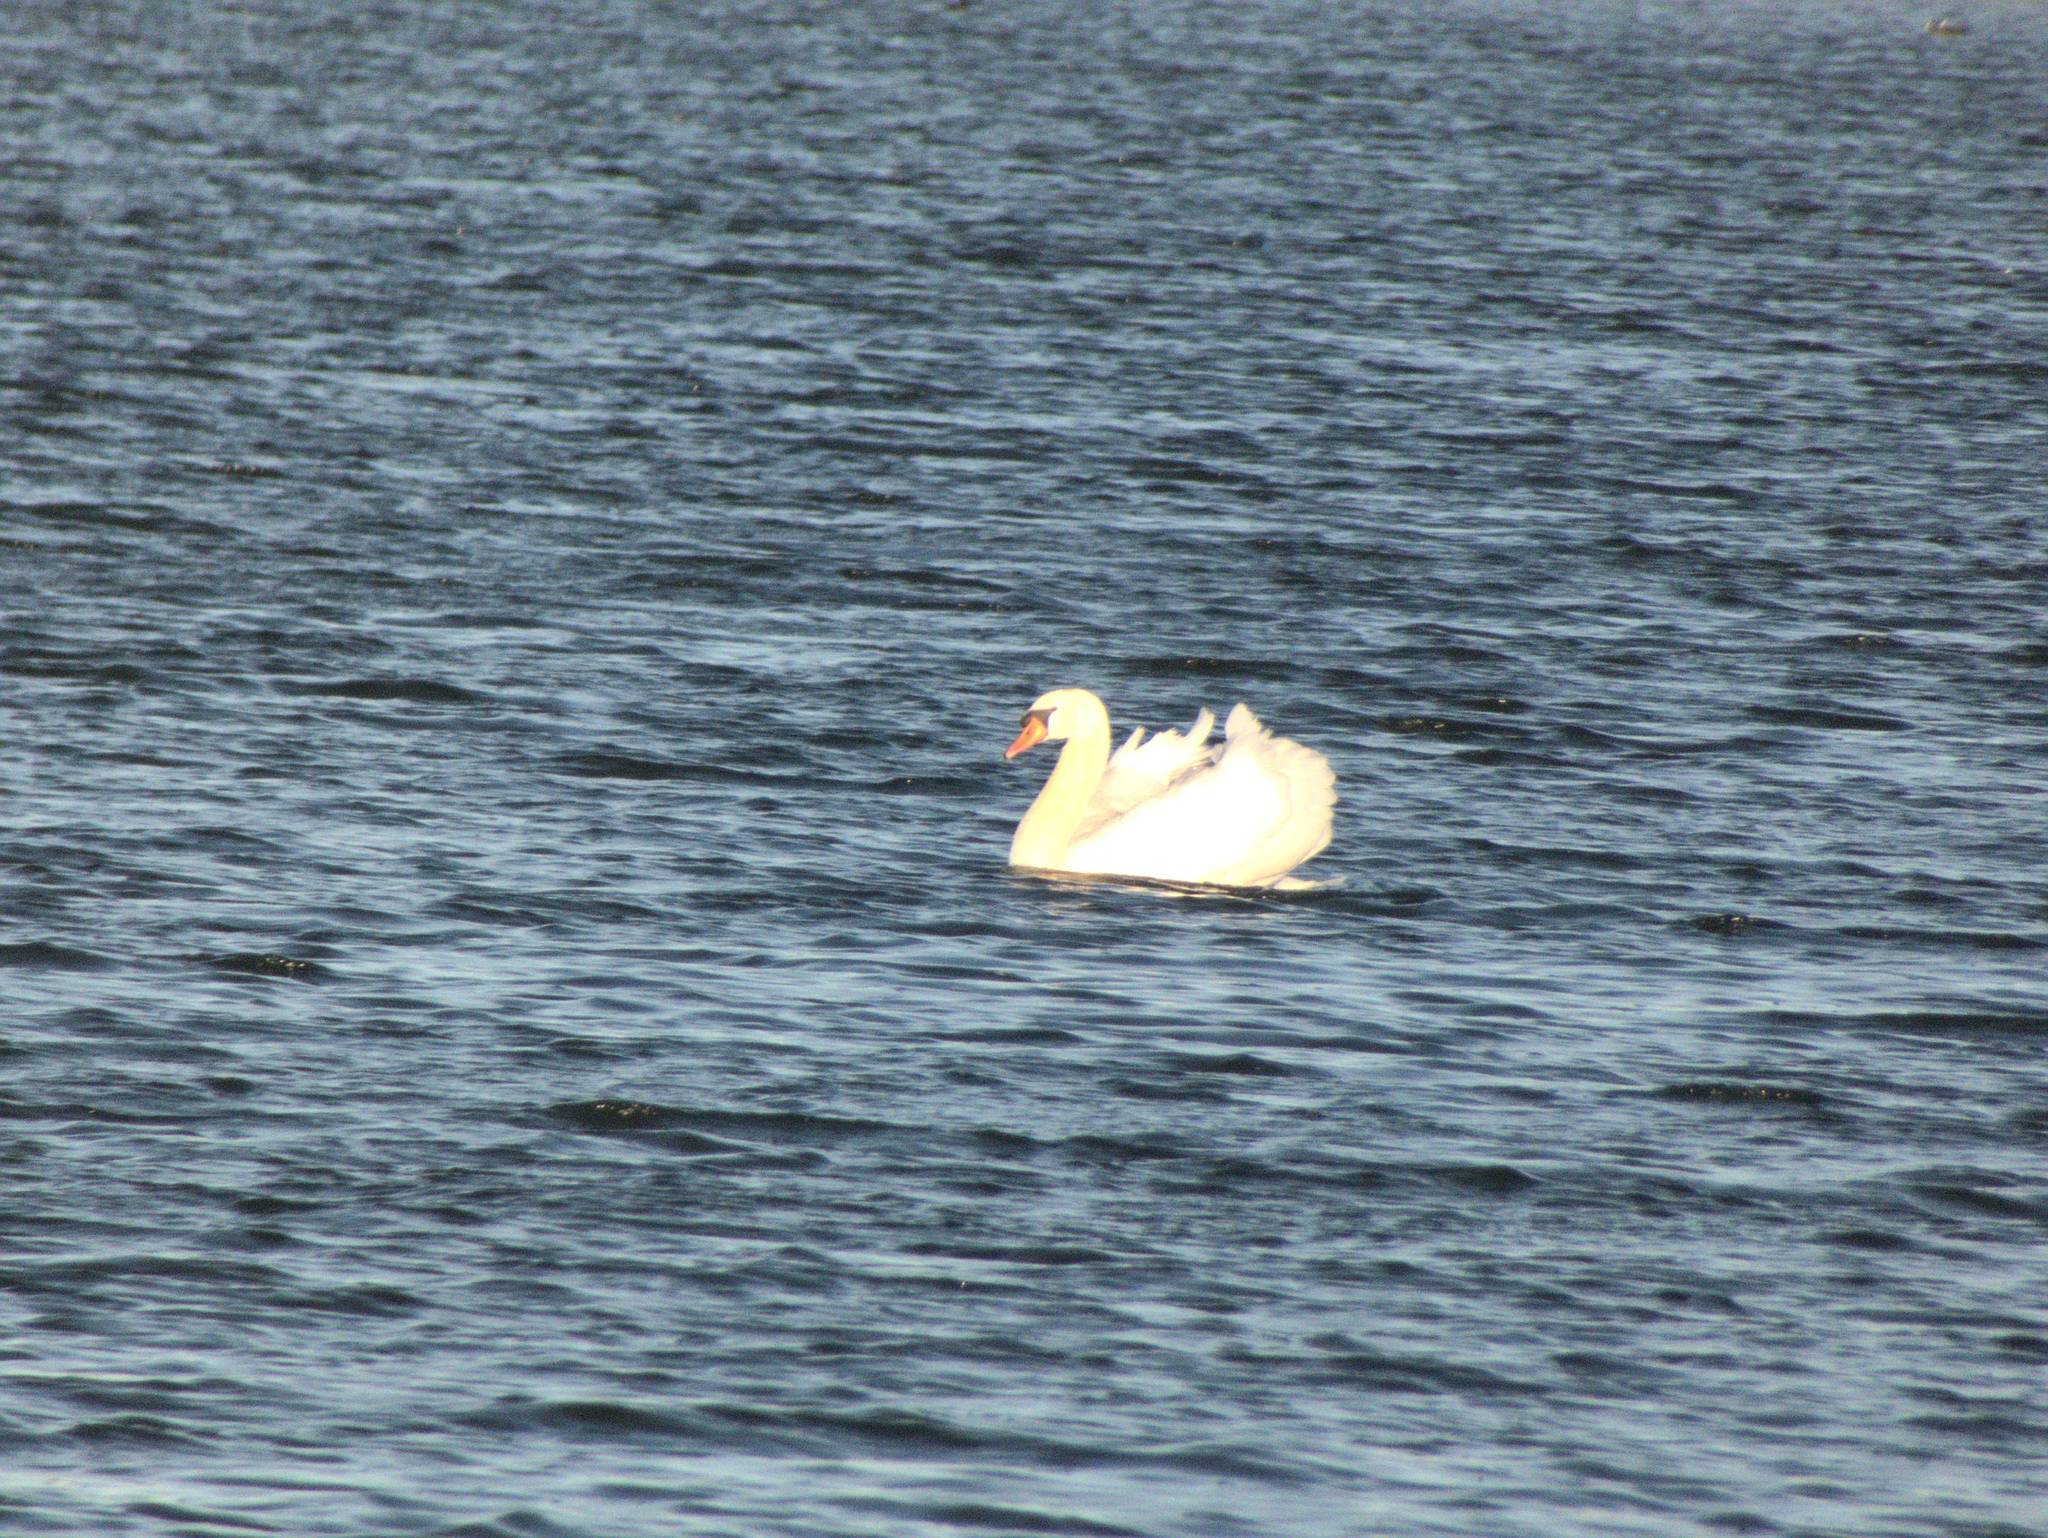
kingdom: Animalia
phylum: Chordata
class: Aves
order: Anseriformes
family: Anatidae
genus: Cygnus
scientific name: Cygnus olor
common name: Mute swan
